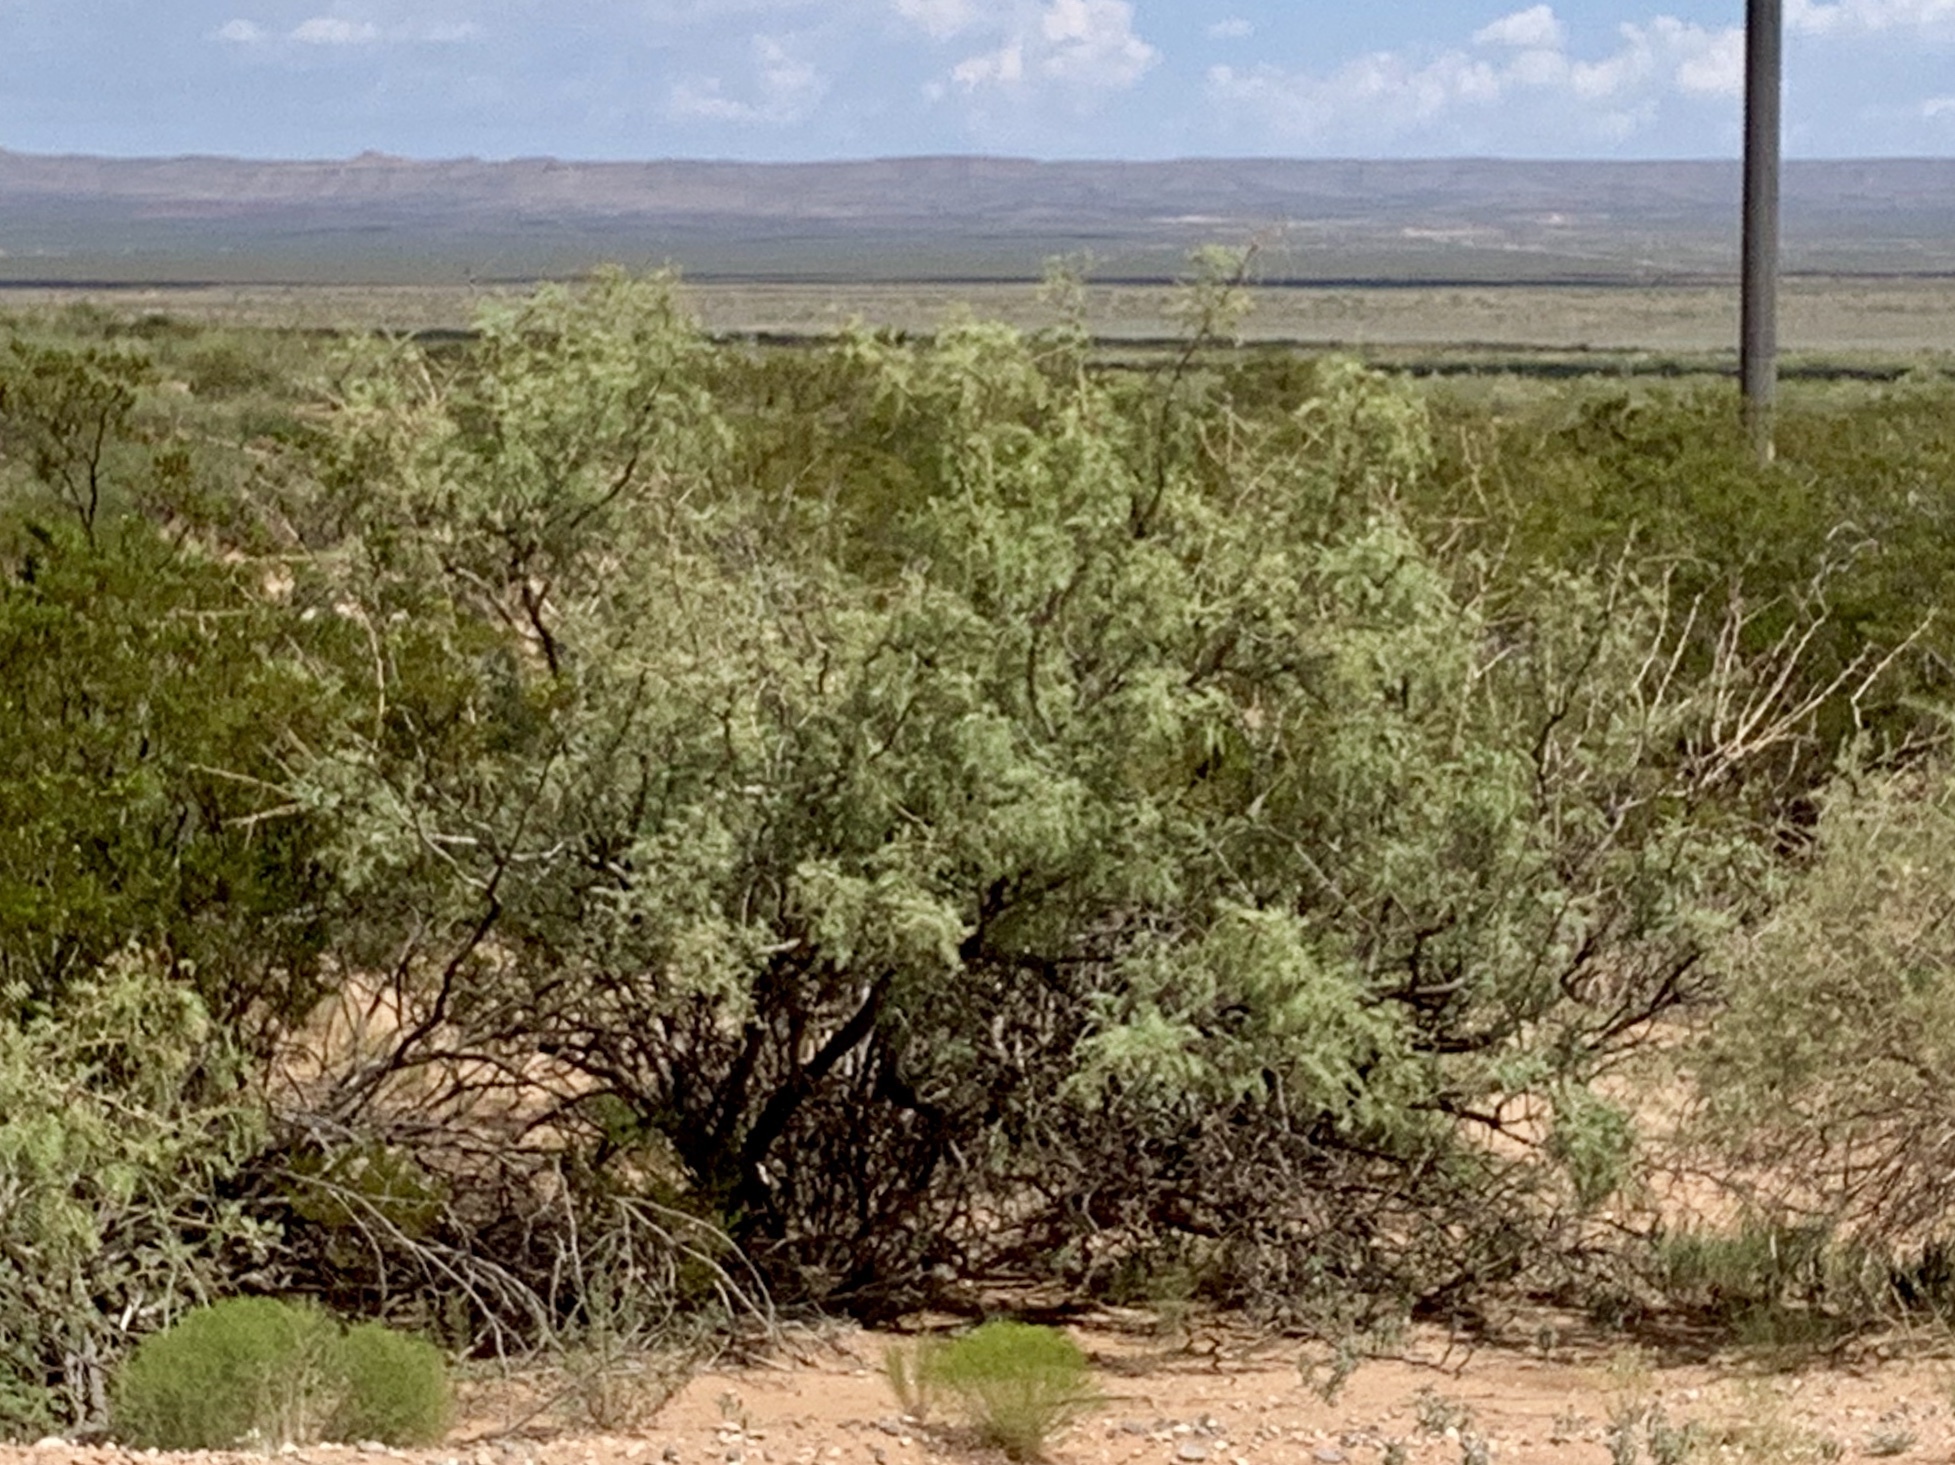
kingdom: Plantae
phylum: Tracheophyta
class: Magnoliopsida
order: Fabales
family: Fabaceae
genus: Prosopis
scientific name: Prosopis glandulosa
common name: Honey mesquite
